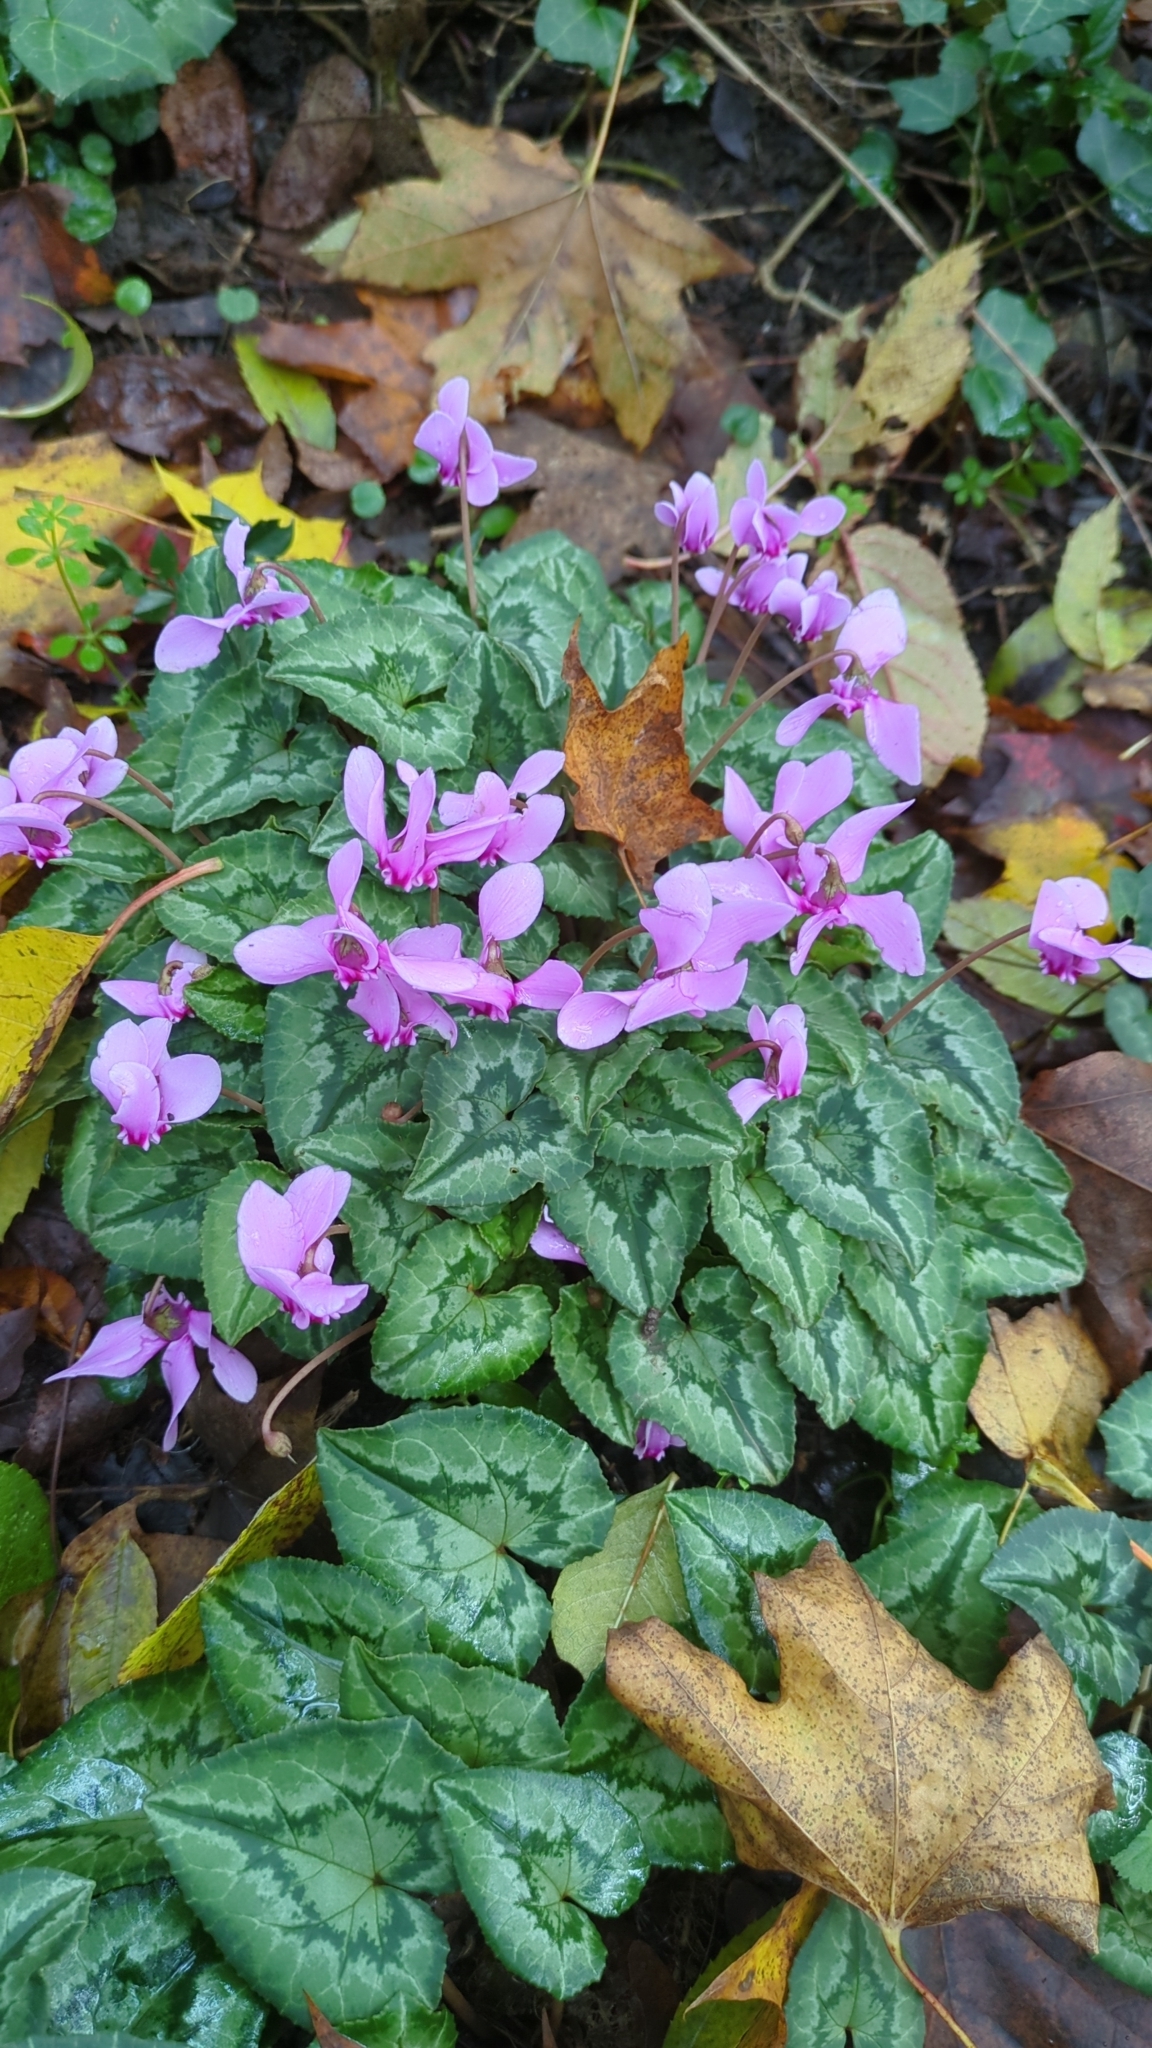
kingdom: Plantae
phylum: Tracheophyta
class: Magnoliopsida
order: Ericales
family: Primulaceae
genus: Cyclamen
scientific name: Cyclamen hederifolium
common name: Sowbread
